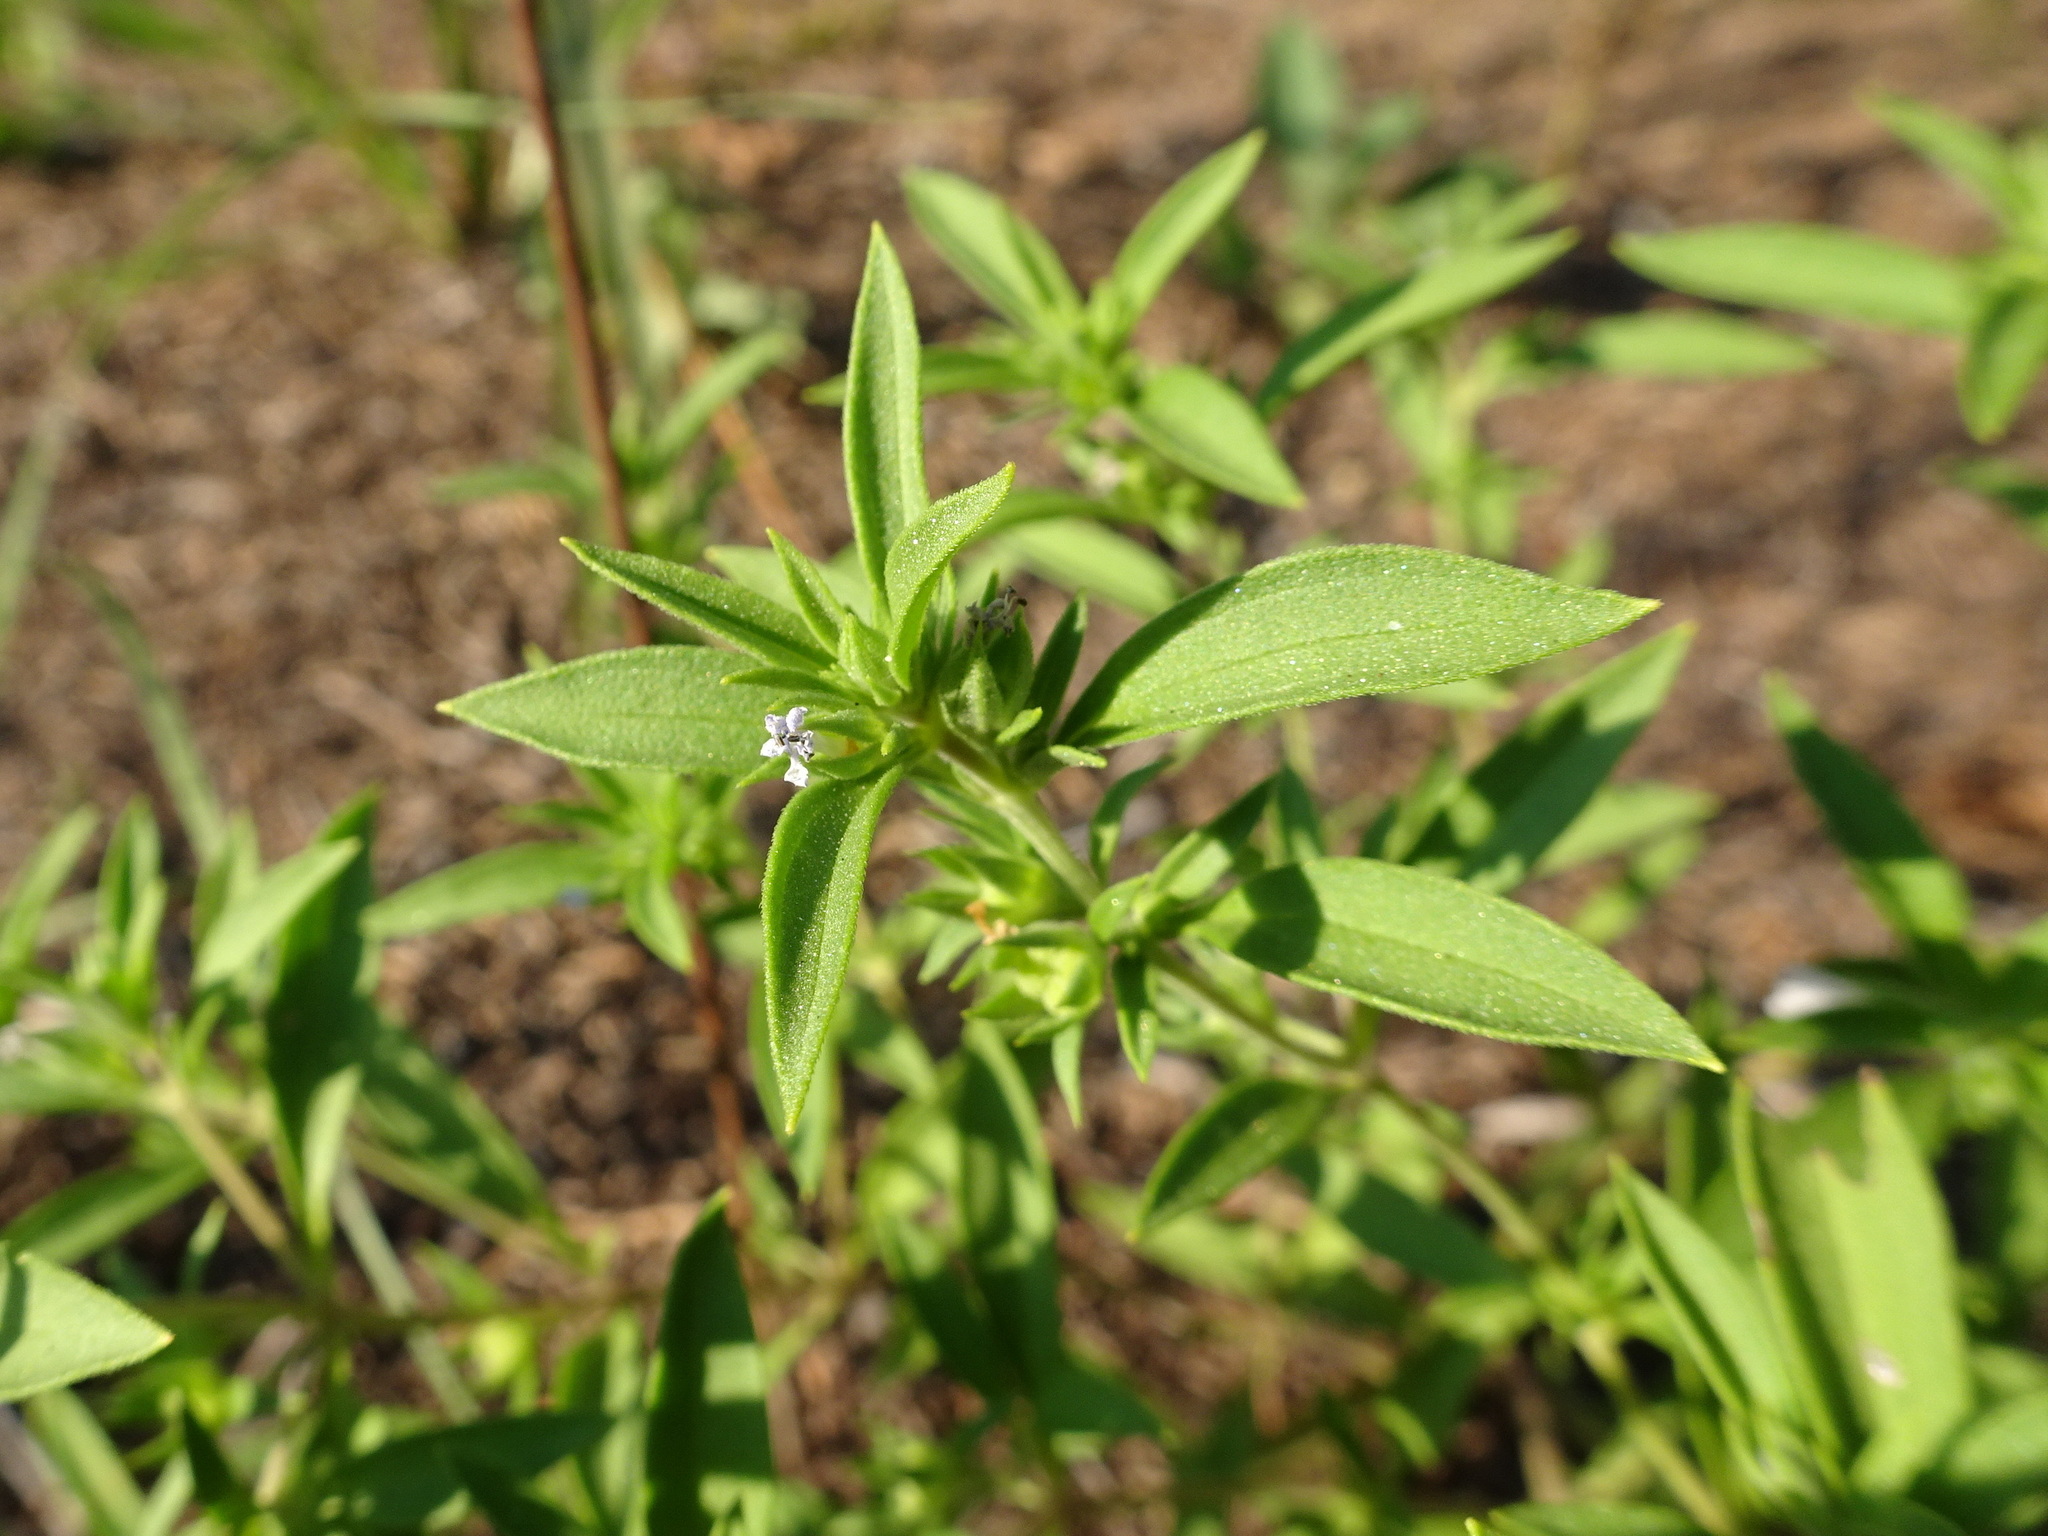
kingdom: Plantae
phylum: Tracheophyta
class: Magnoliopsida
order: Lamiales
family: Lamiaceae
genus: Trichostema
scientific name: Trichostema brachiatum
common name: False pennyroyal
